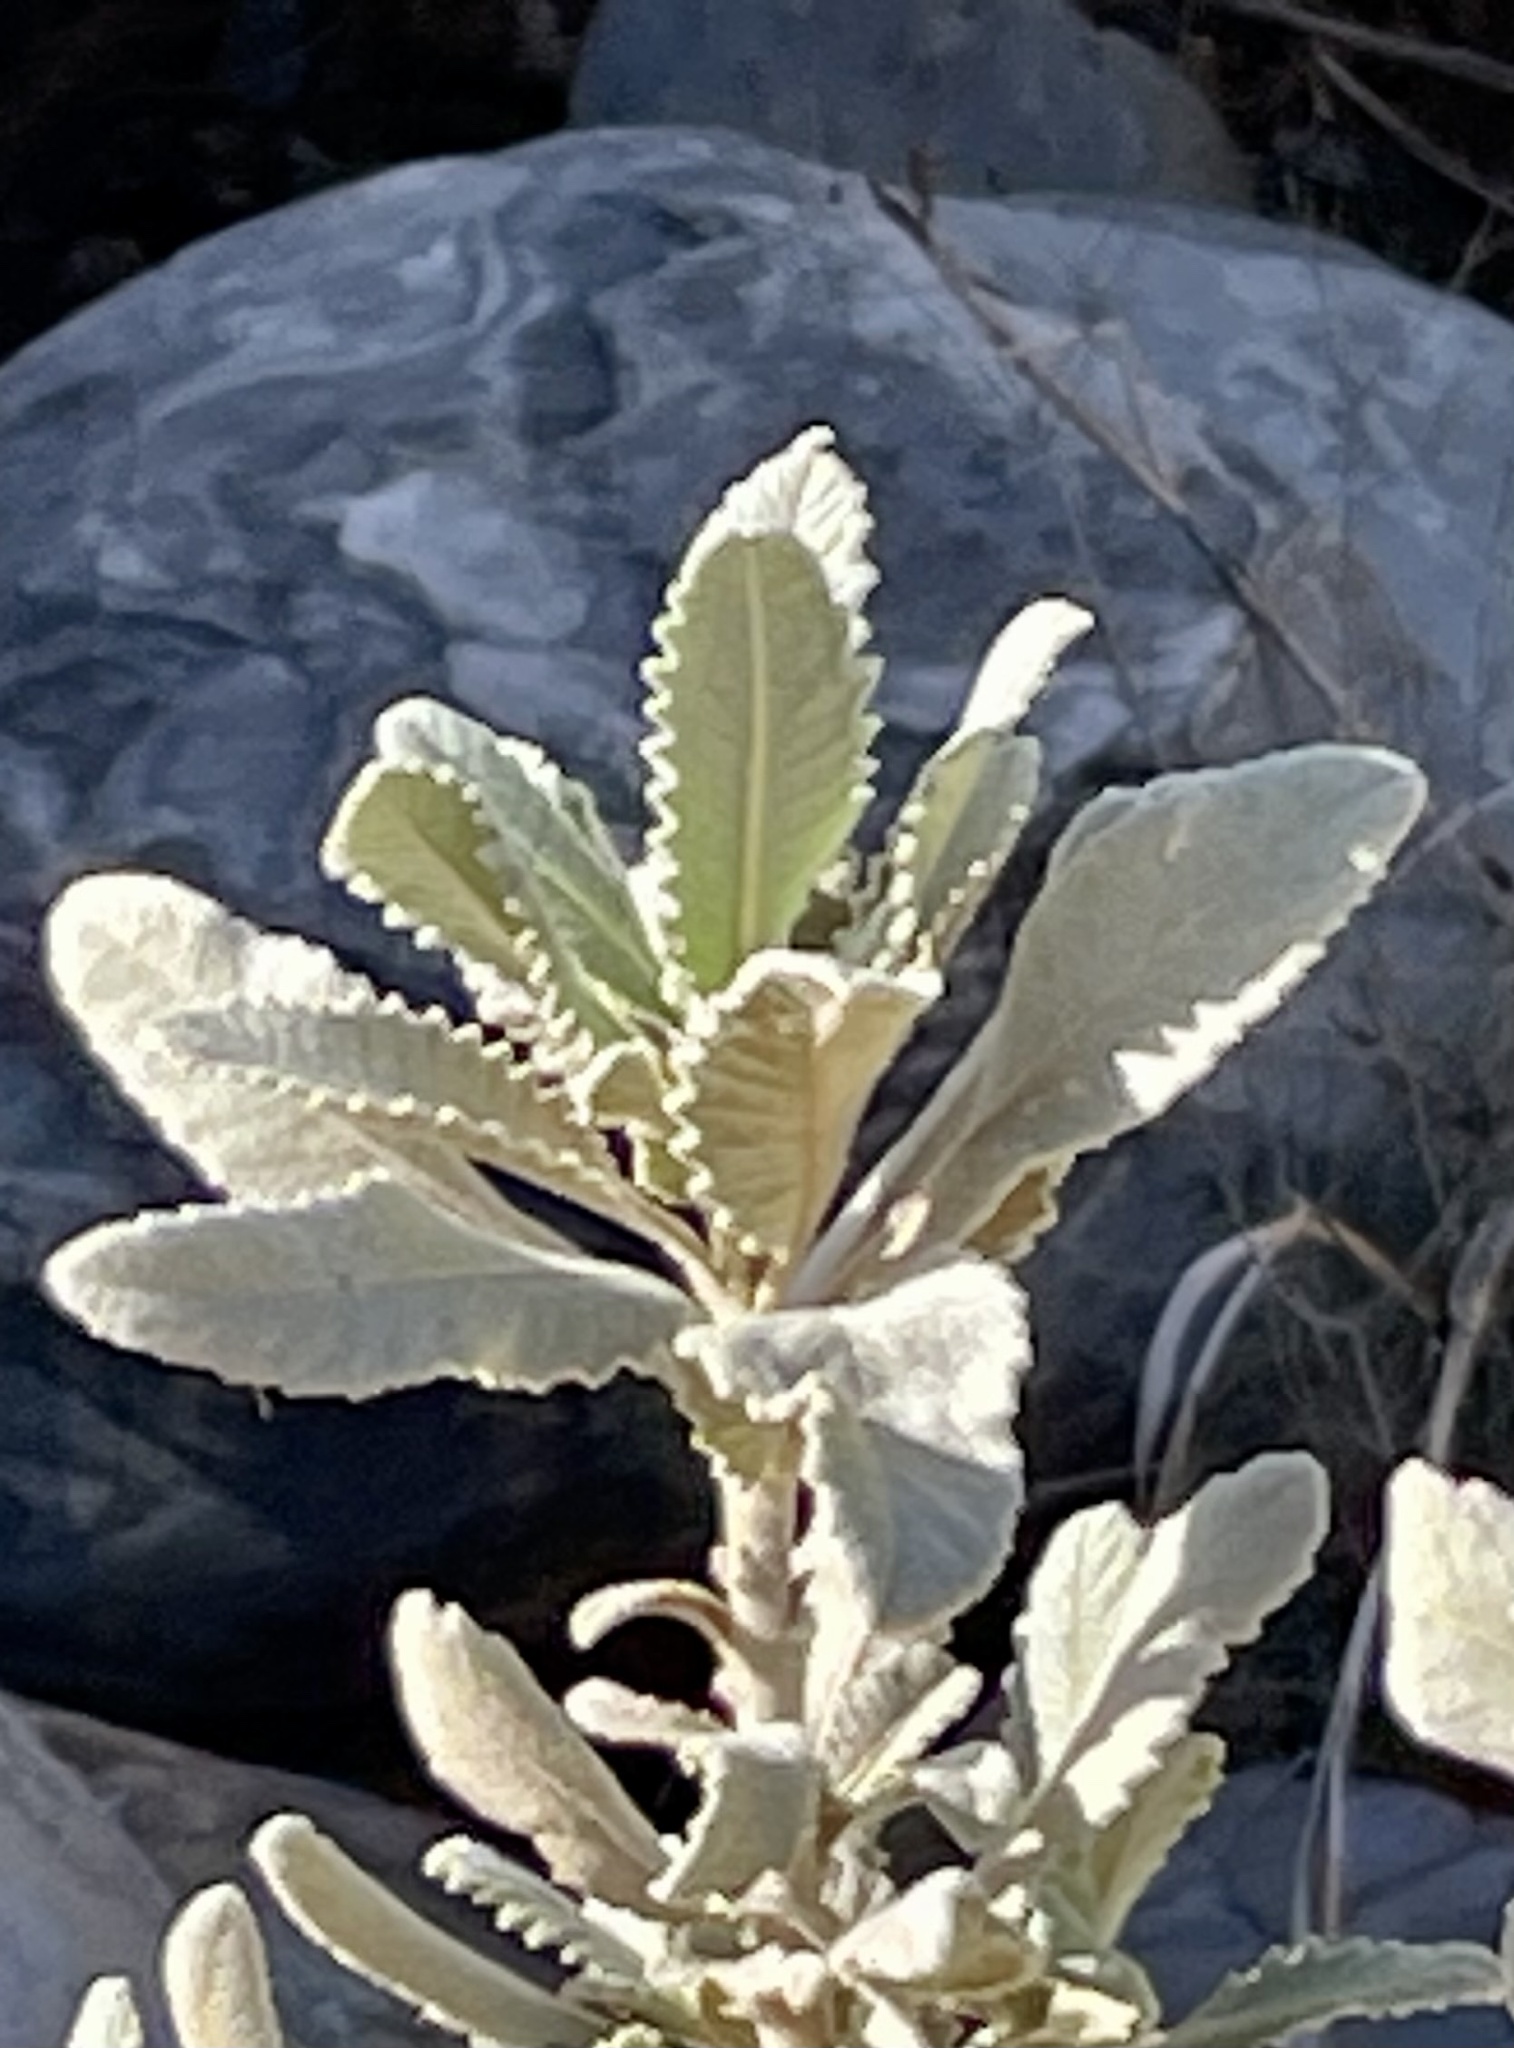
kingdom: Plantae
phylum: Tracheophyta
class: Magnoliopsida
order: Boraginales
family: Namaceae
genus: Eriodictyon
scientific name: Eriodictyon crassifolium
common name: Thick-leaf yerba-santa
